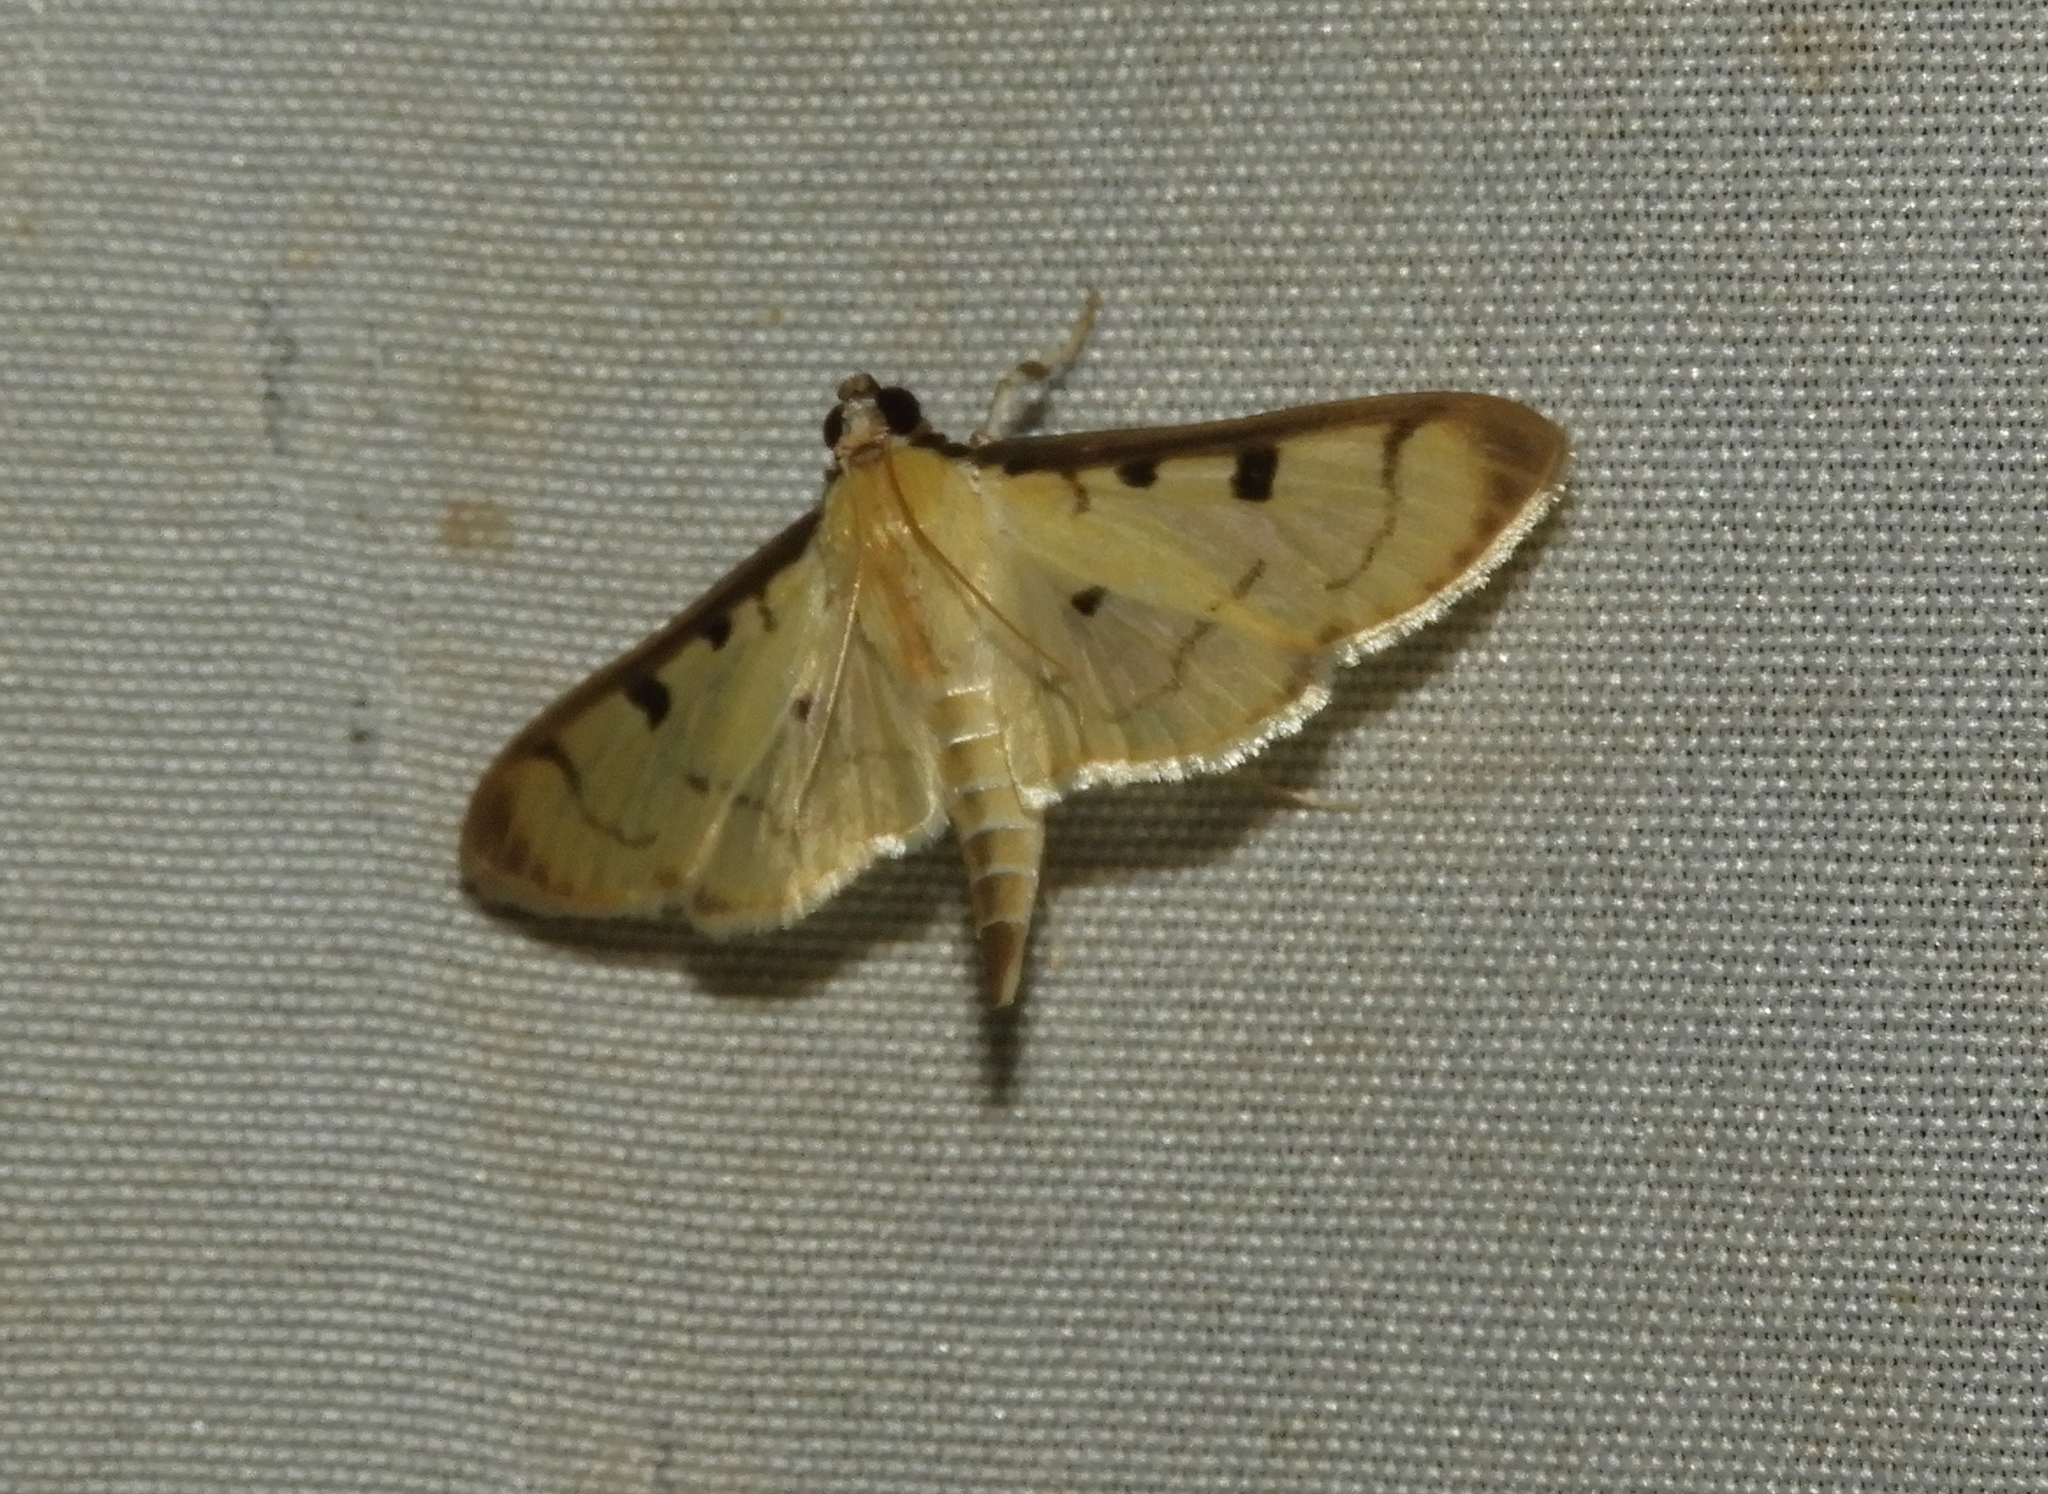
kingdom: Animalia
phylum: Arthropoda
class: Insecta
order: Lepidoptera
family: Crambidae
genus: Spilomelinae
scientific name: Spilomelinae
